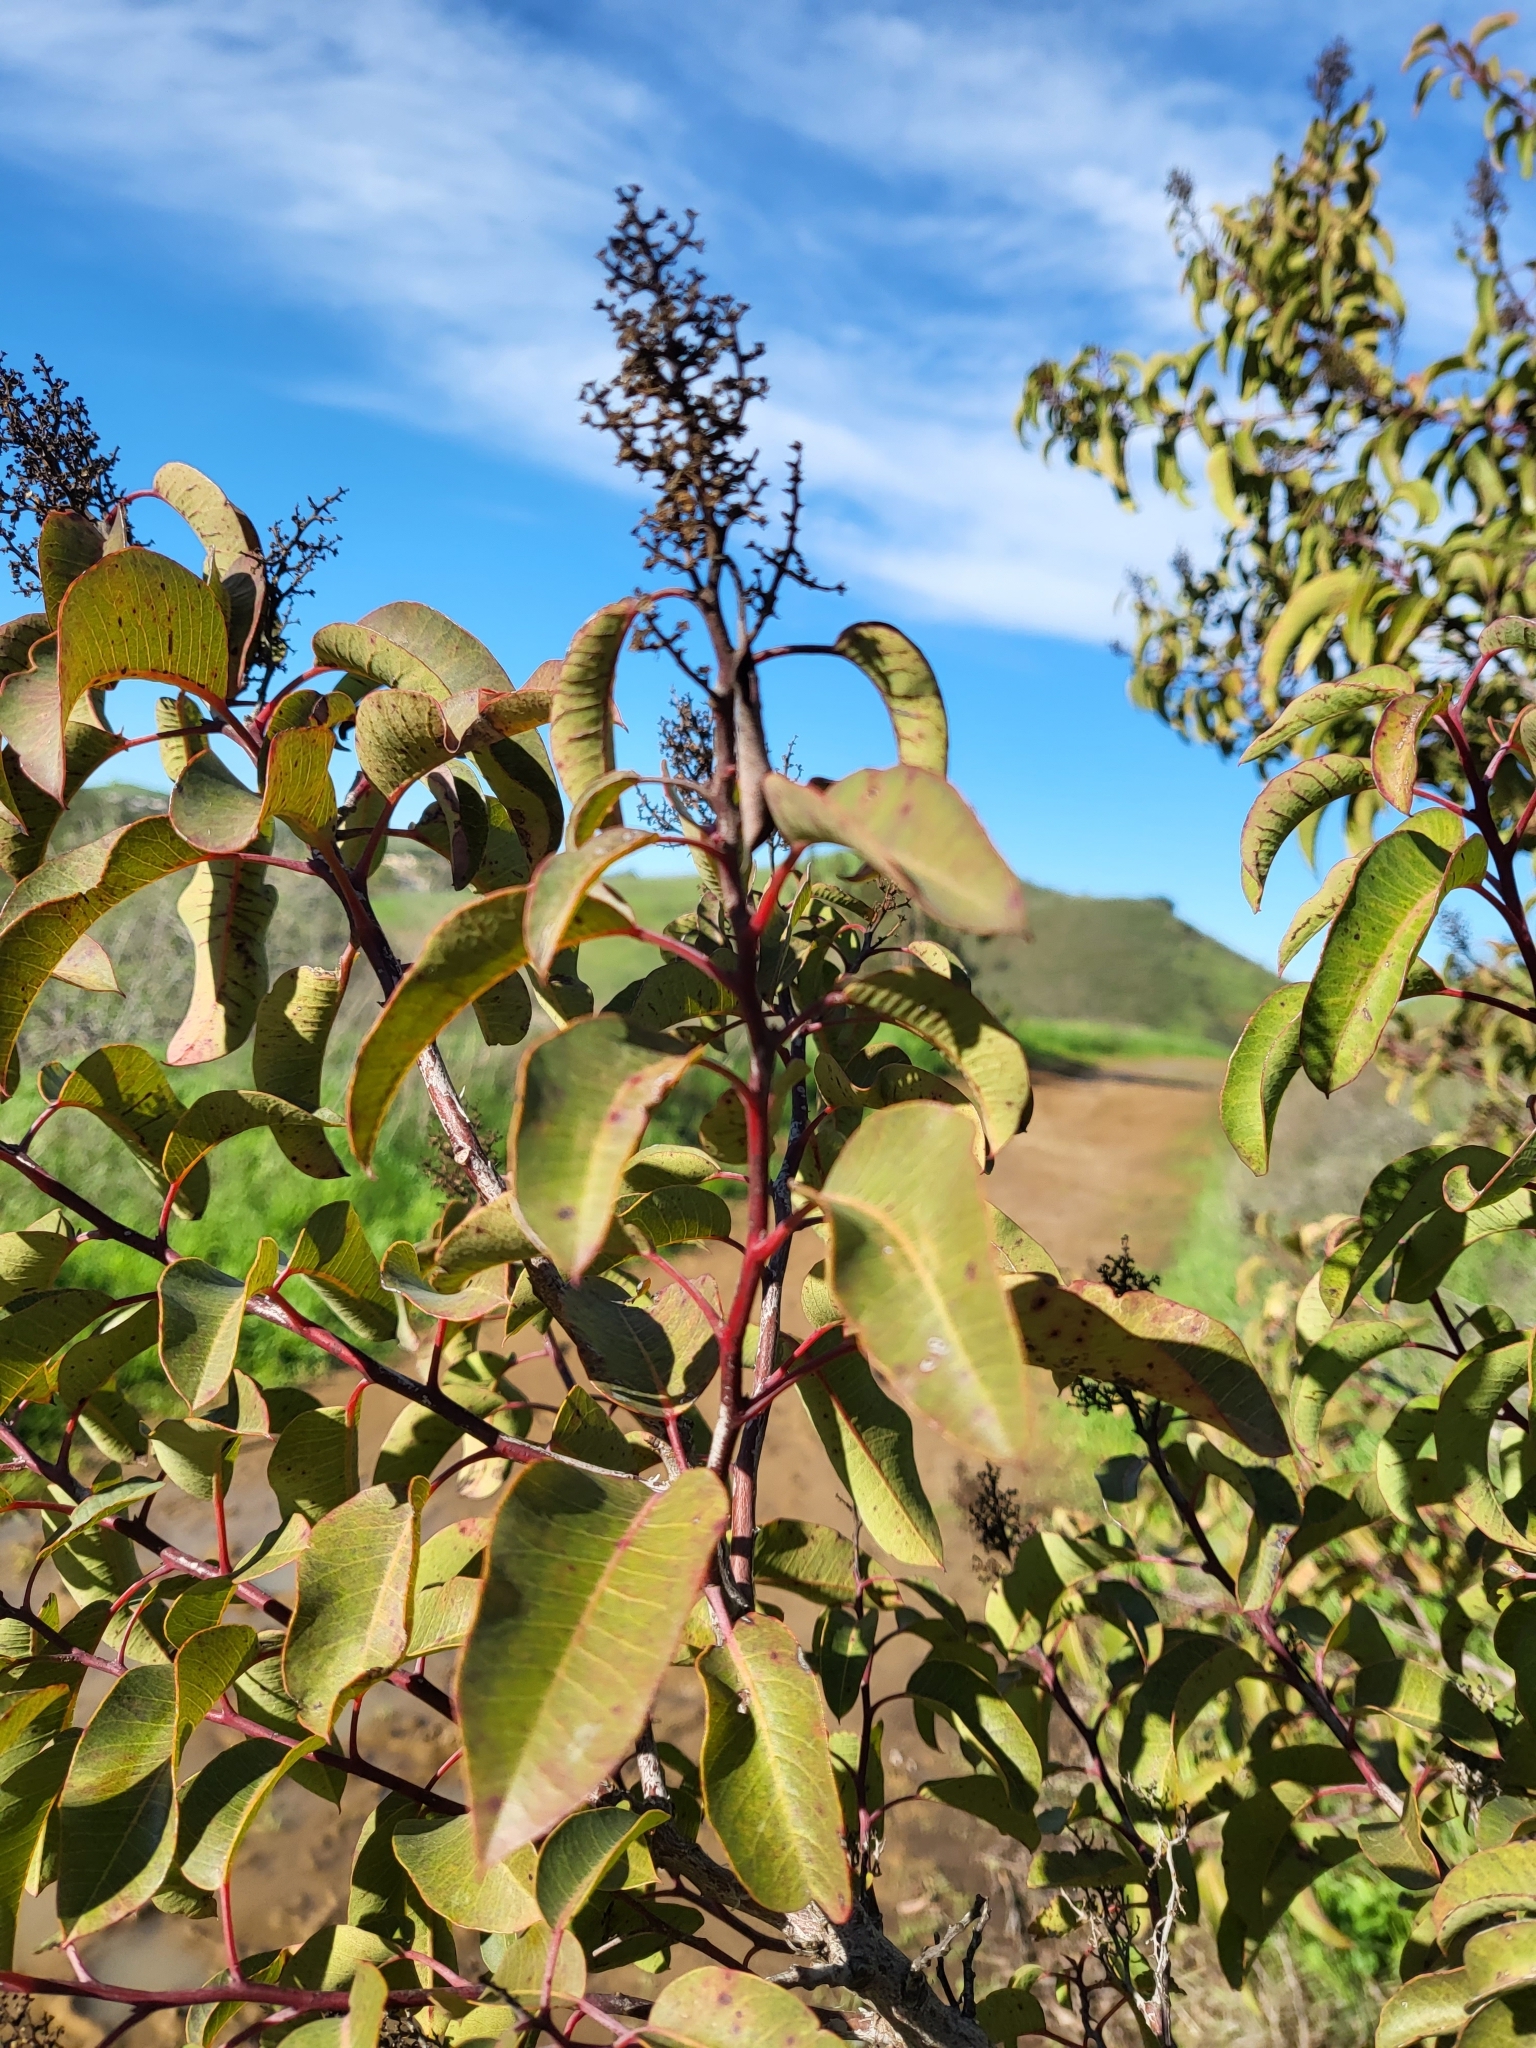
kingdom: Plantae
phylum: Tracheophyta
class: Magnoliopsida
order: Sapindales
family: Anacardiaceae
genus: Malosma
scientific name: Malosma laurina
